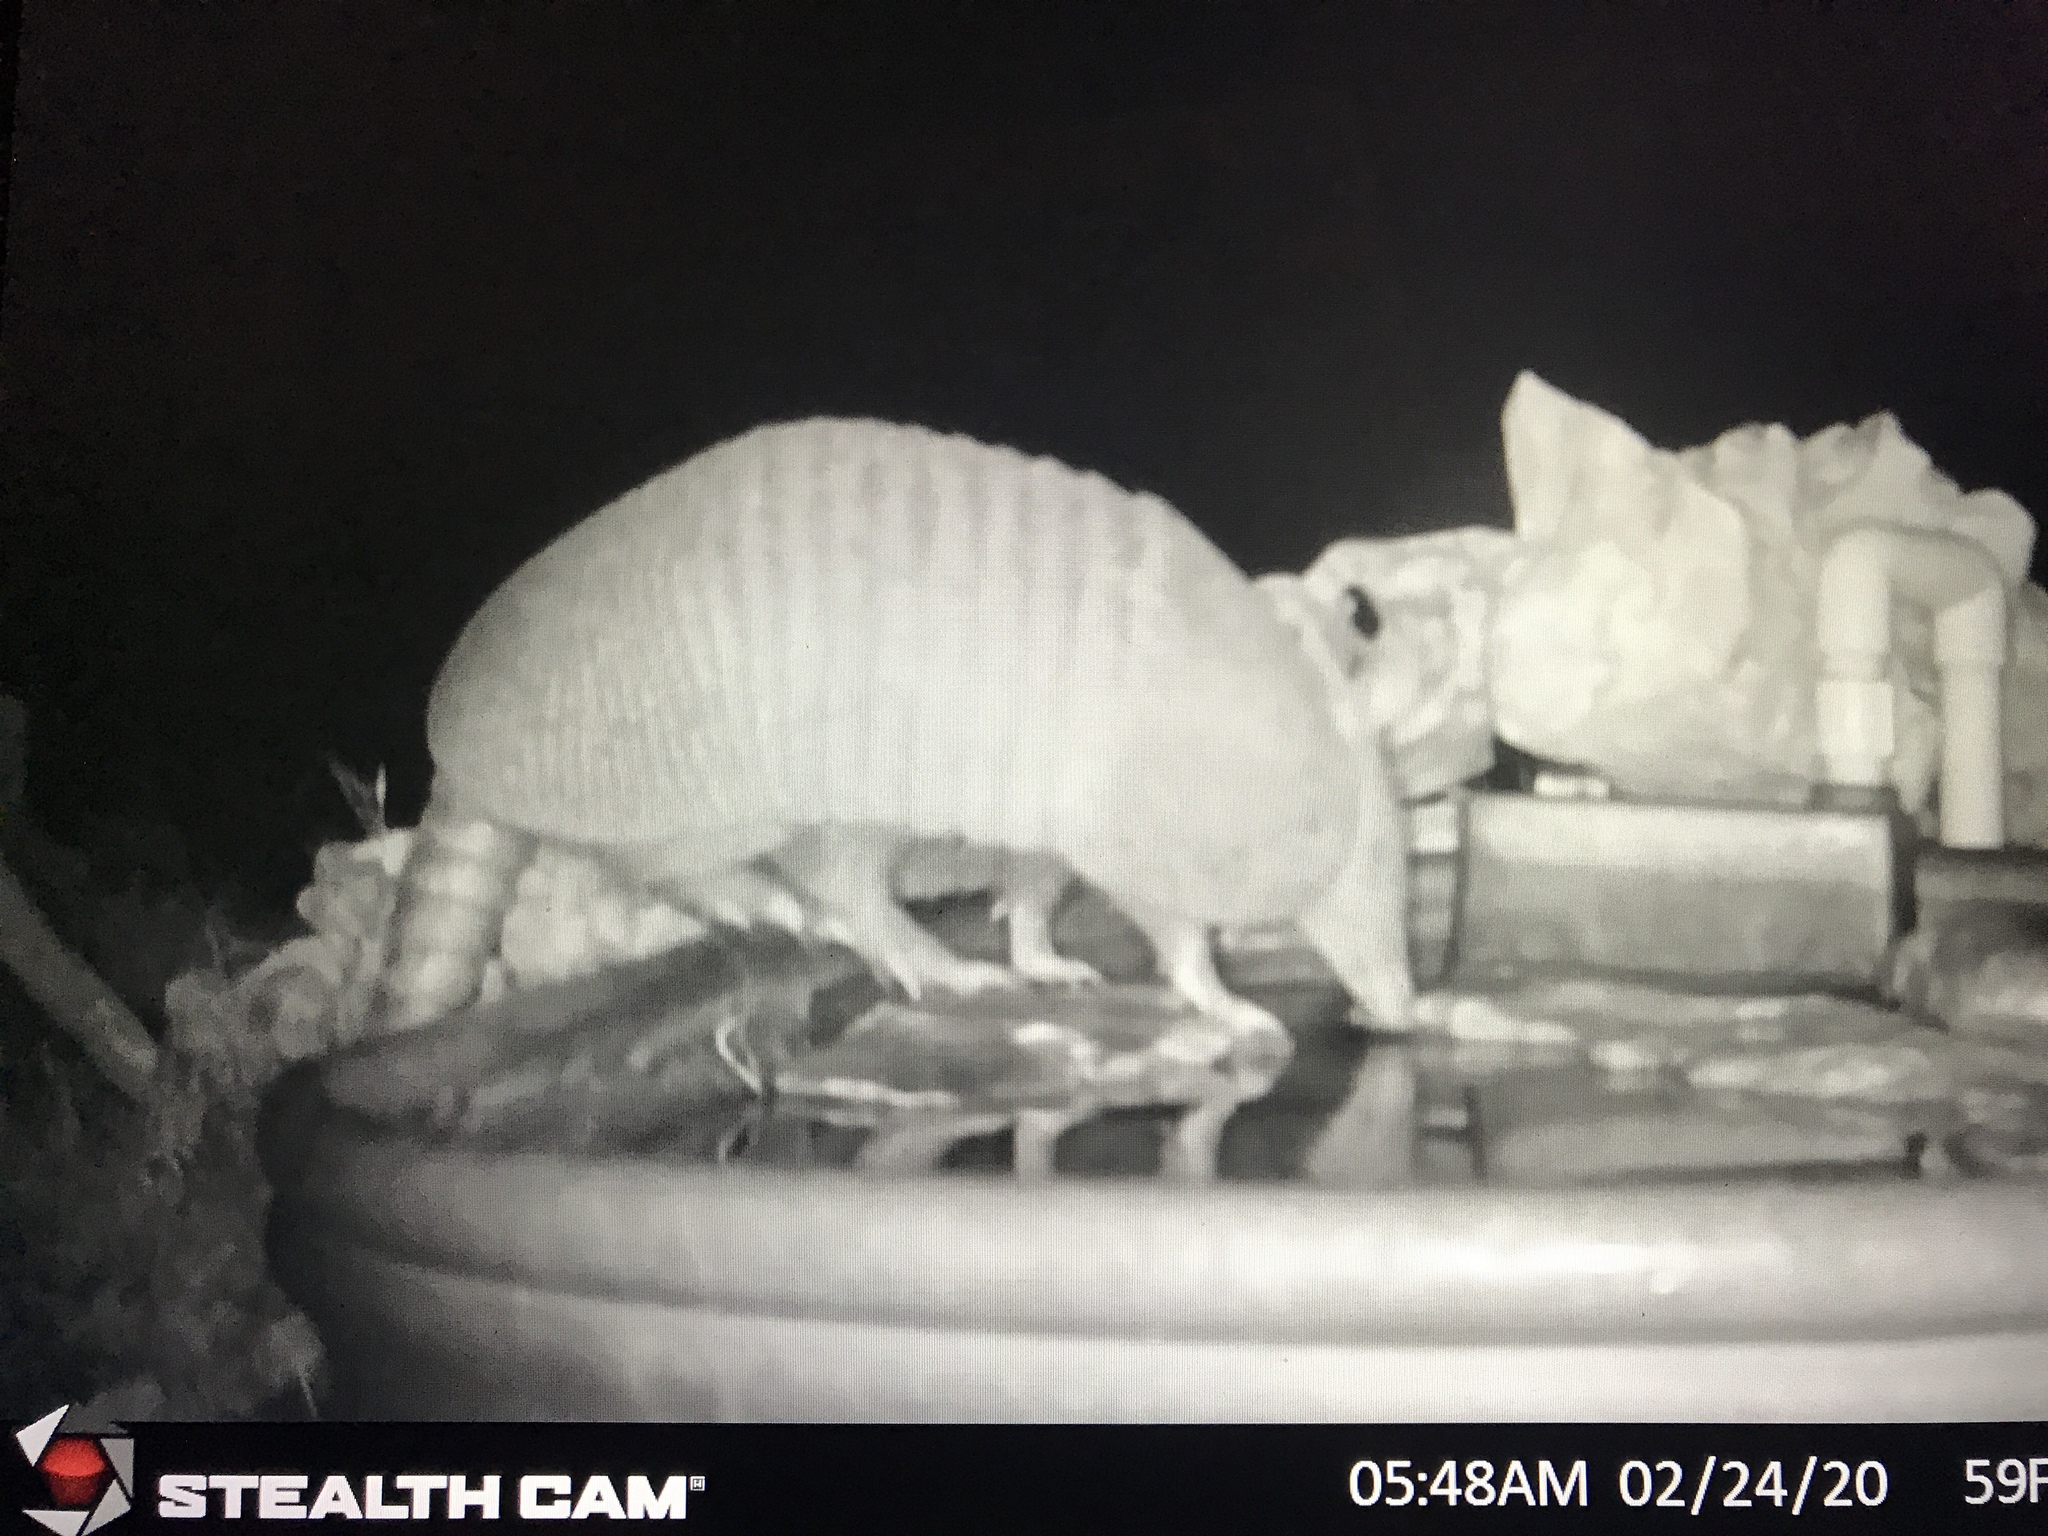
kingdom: Animalia
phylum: Chordata
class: Mammalia
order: Cingulata
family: Dasypodidae
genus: Dasypus
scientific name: Dasypus novemcinctus
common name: Nine-banded armadillo
